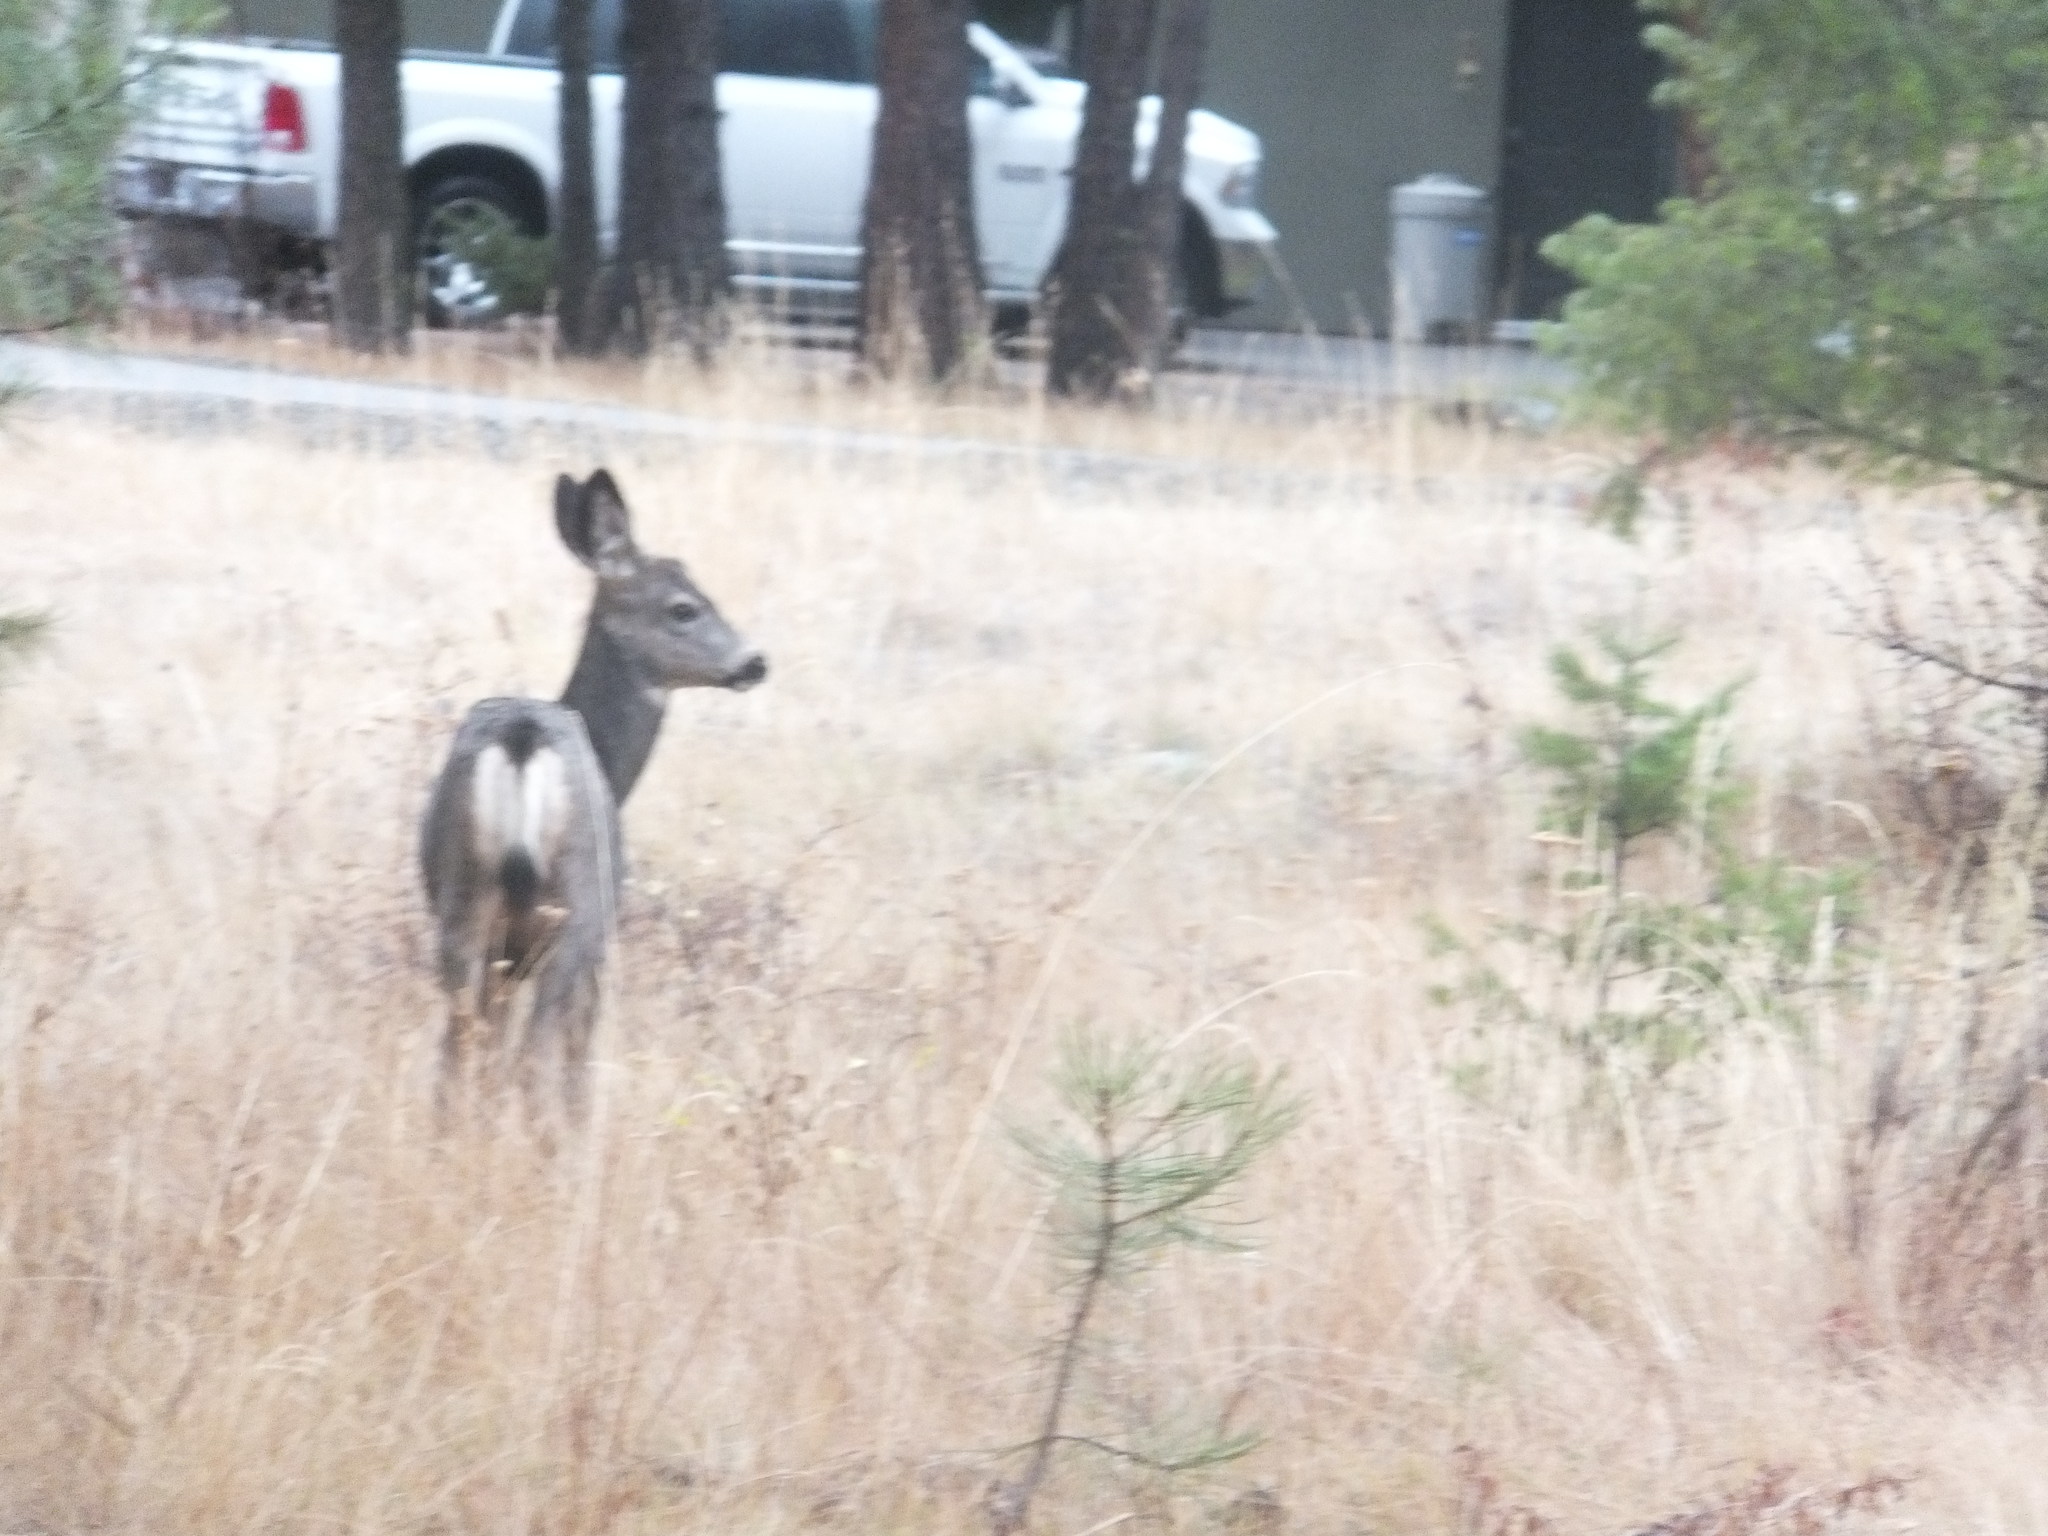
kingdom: Animalia
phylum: Chordata
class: Mammalia
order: Artiodactyla
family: Cervidae
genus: Odocoileus
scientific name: Odocoileus hemionus
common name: Mule deer
